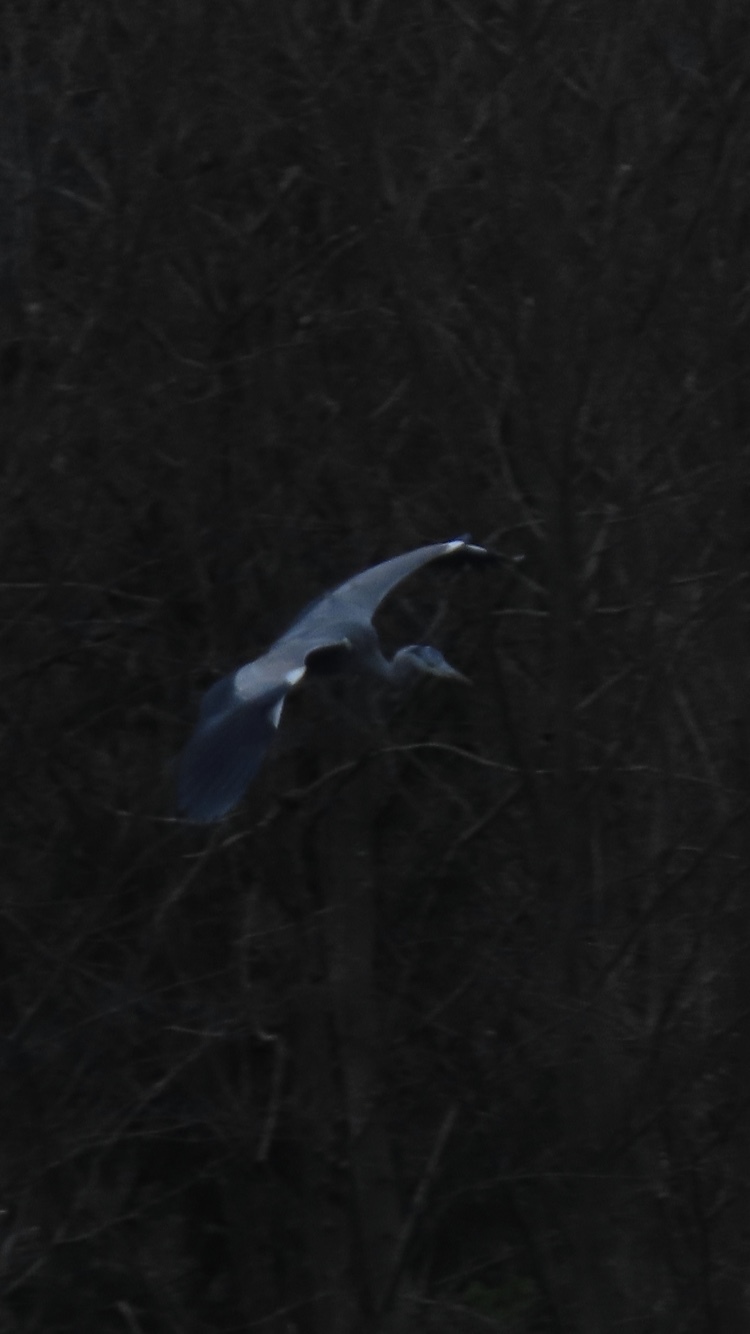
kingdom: Animalia
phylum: Chordata
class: Aves
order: Pelecaniformes
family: Ardeidae
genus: Ardea
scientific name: Ardea cinerea
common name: Grey heron
